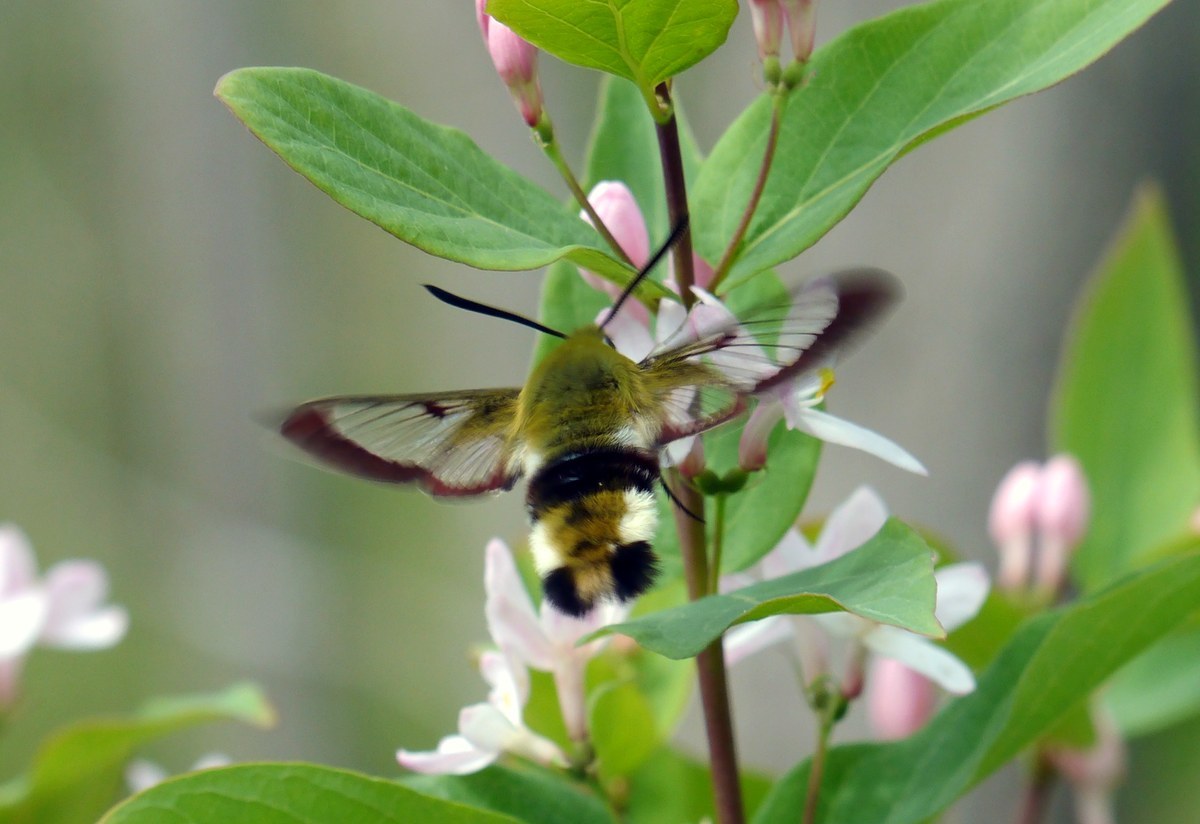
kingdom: Animalia
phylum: Arthropoda
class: Insecta
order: Lepidoptera
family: Sphingidae
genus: Hemaris
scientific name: Hemaris fuciformis
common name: Broad-bordered bee hawk-moth
